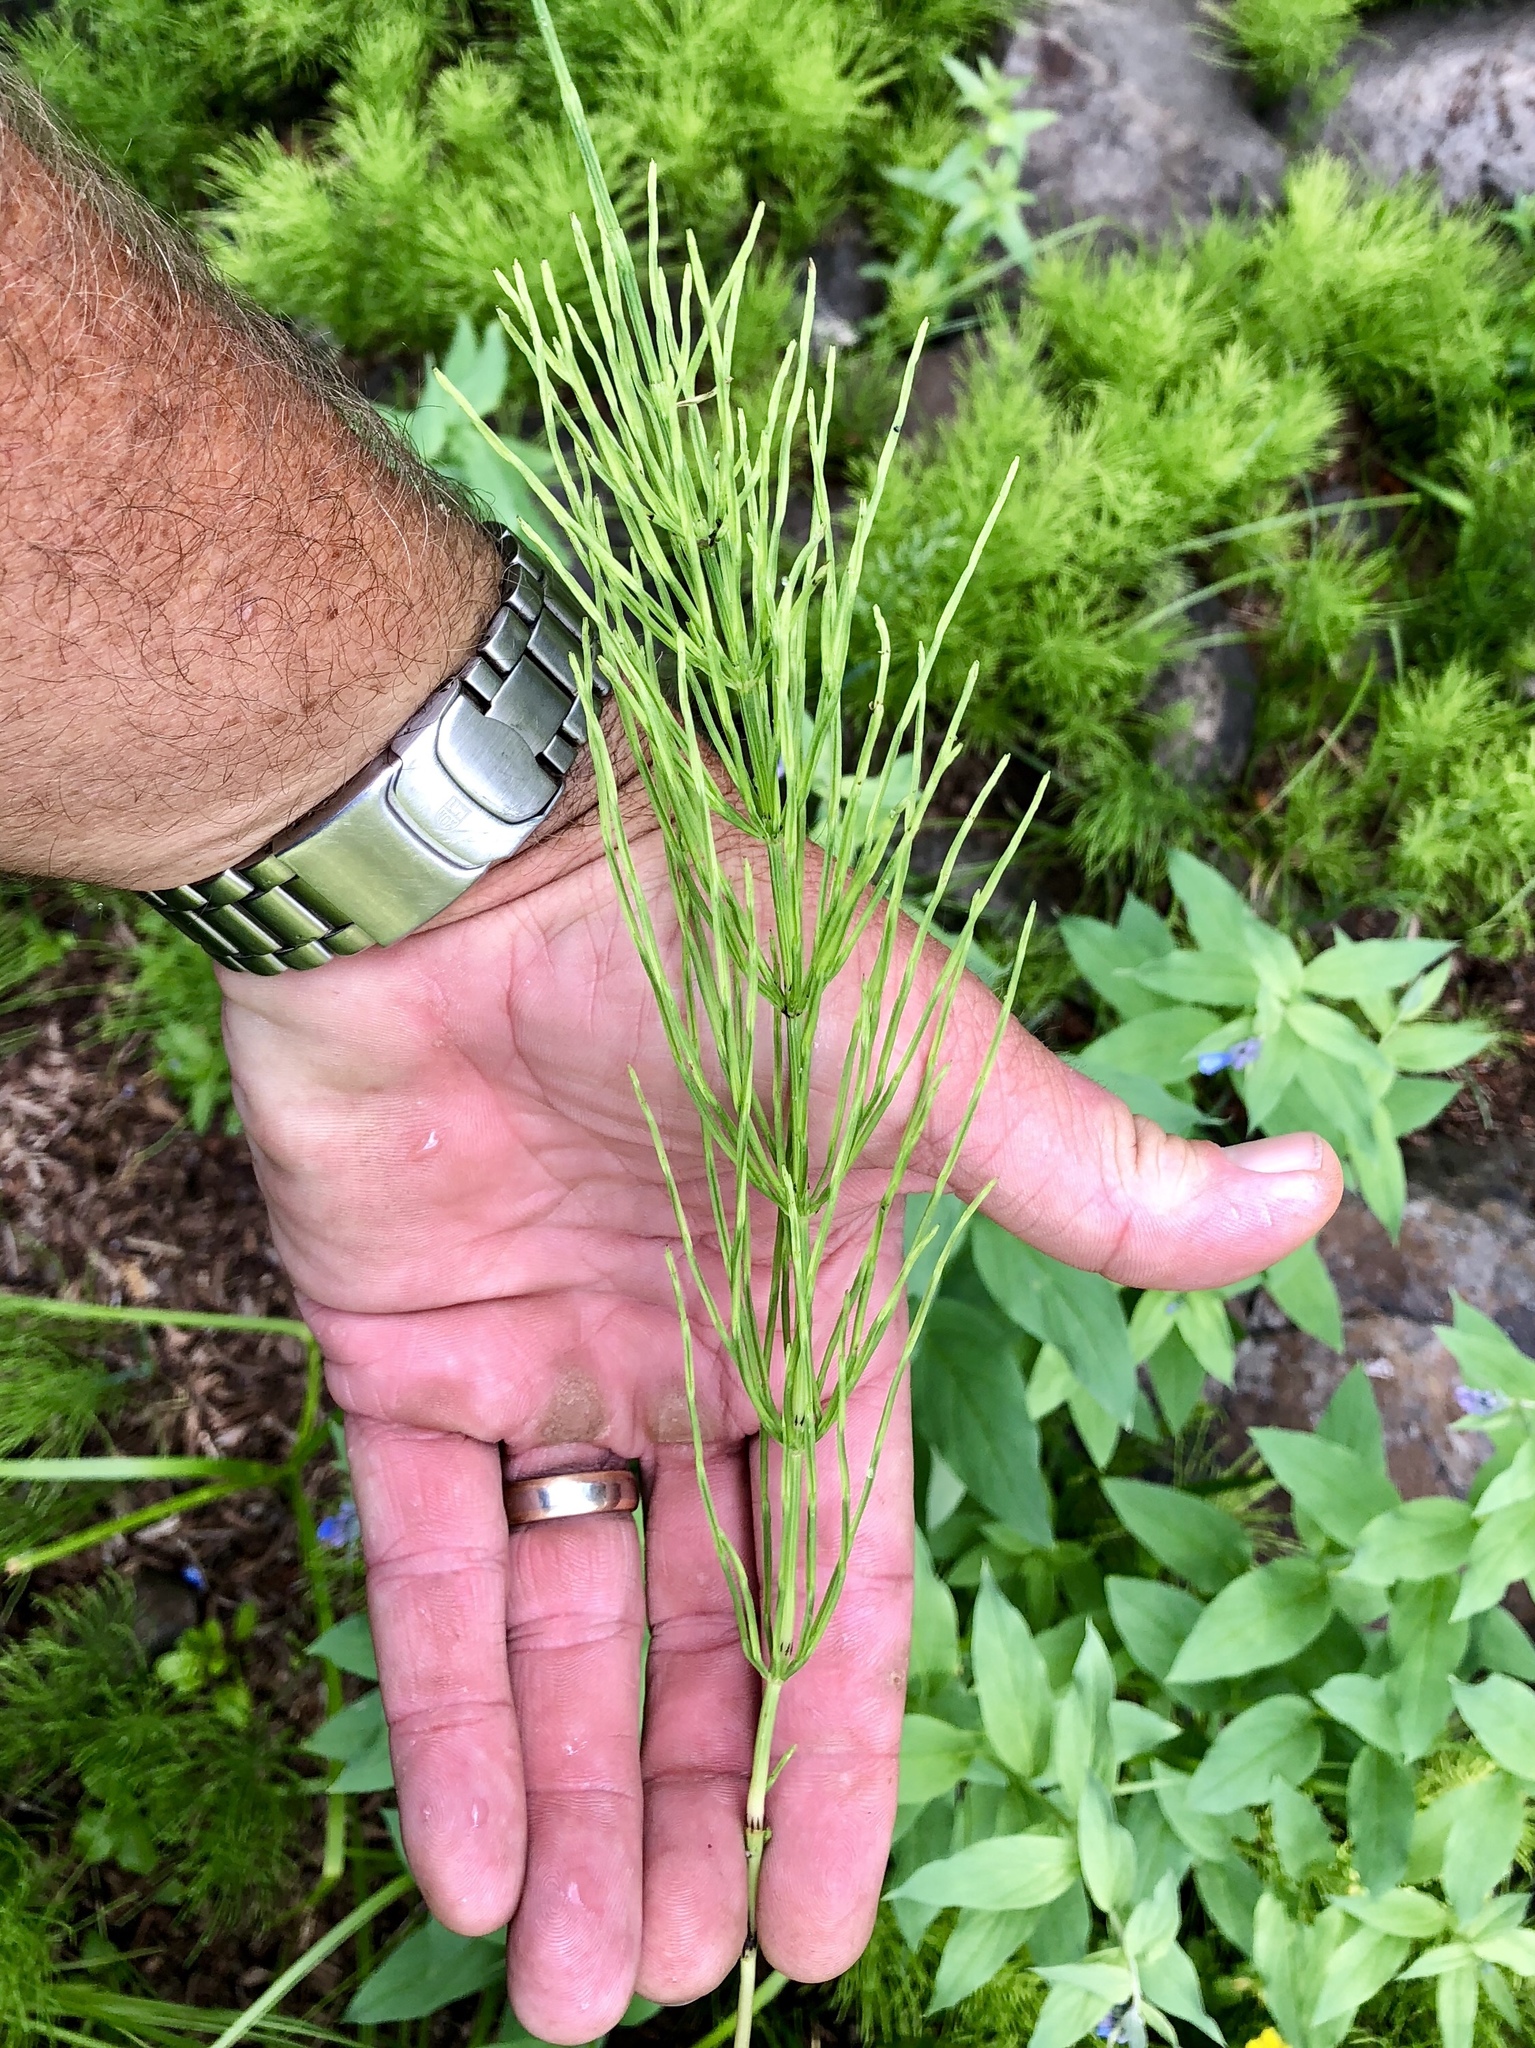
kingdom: Plantae
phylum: Tracheophyta
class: Polypodiopsida
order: Equisetales
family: Equisetaceae
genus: Equisetum
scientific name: Equisetum arvense
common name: Field horsetail
